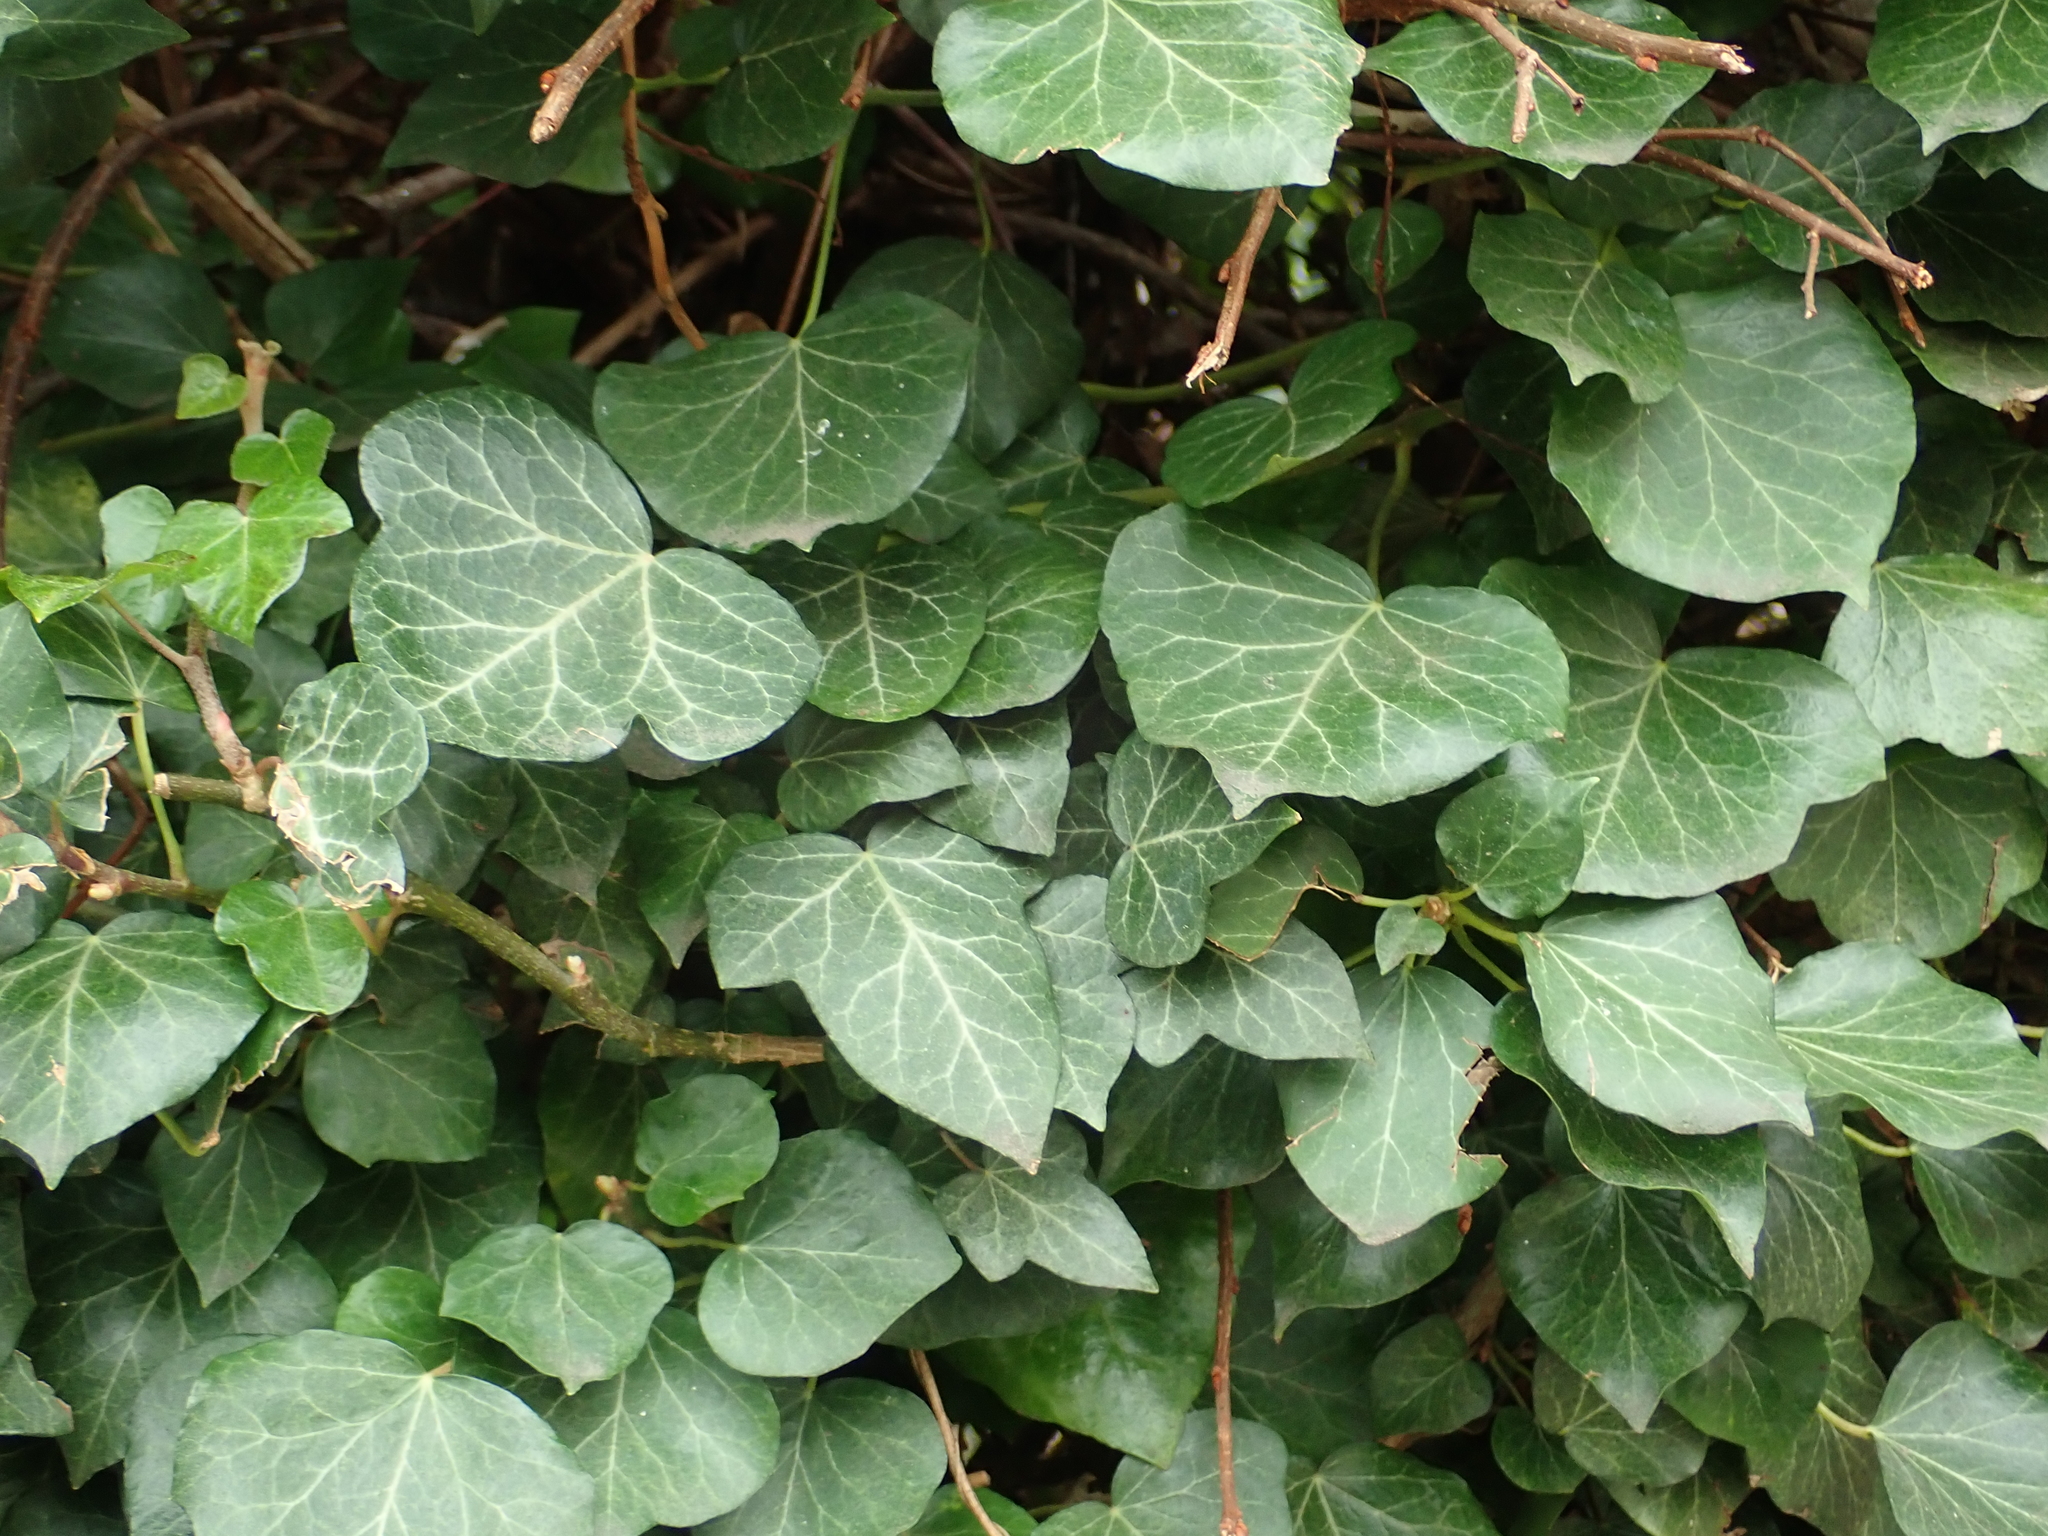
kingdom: Plantae
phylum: Tracheophyta
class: Magnoliopsida
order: Apiales
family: Araliaceae
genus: Hedera
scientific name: Hedera helix
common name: Ivy
